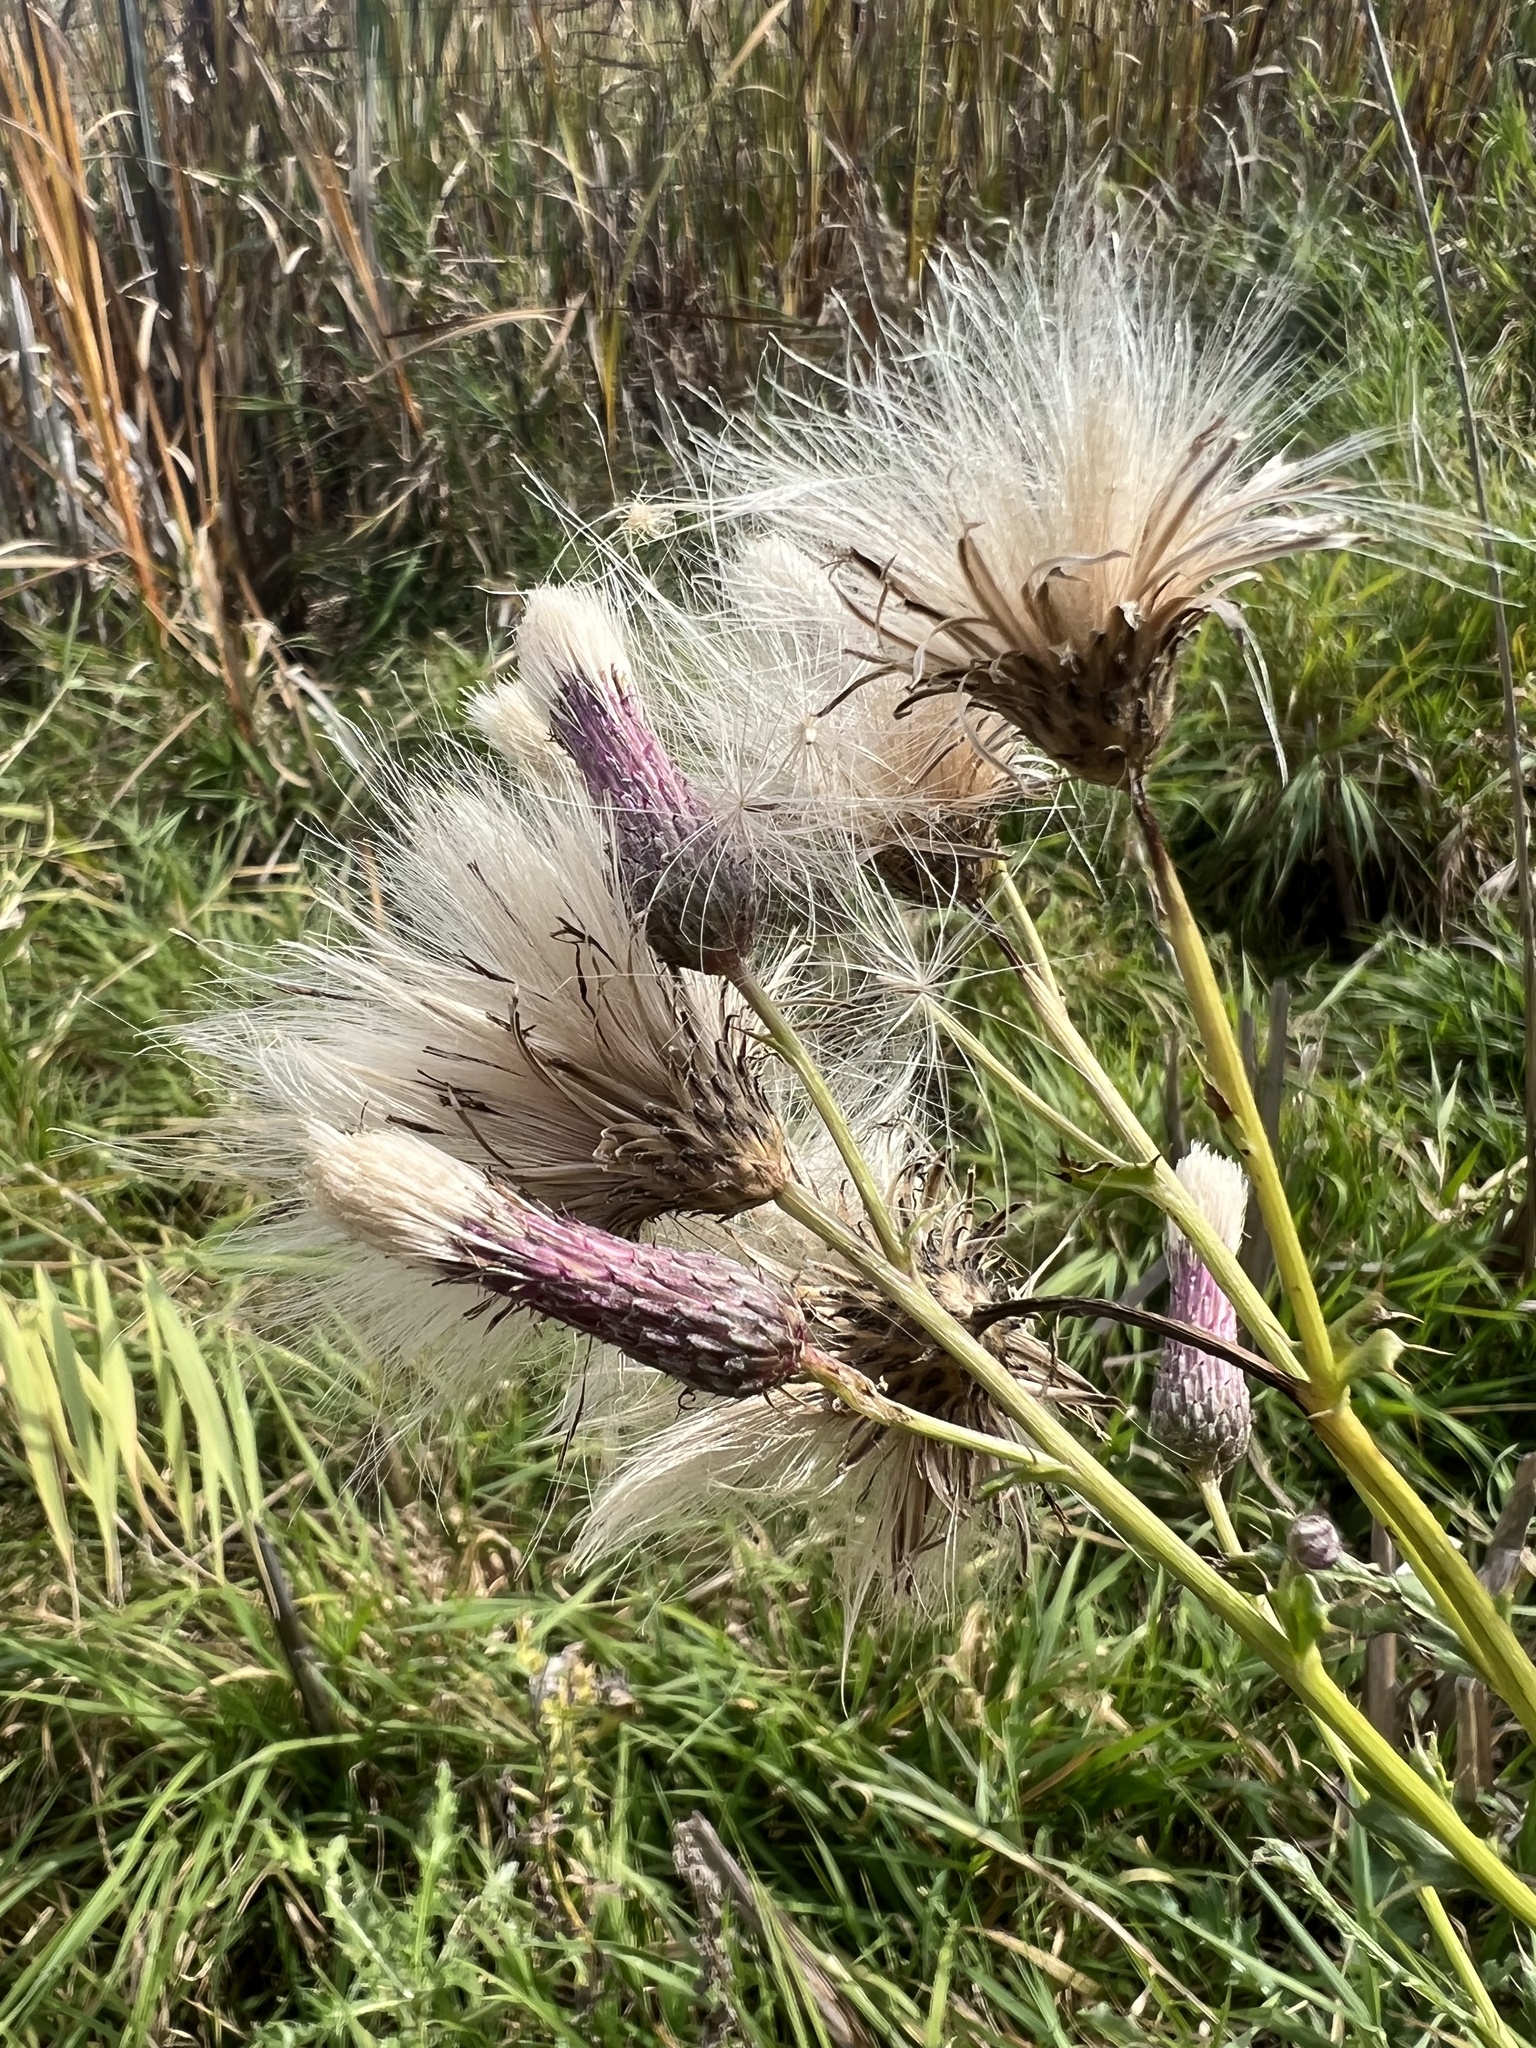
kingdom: Plantae
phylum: Tracheophyta
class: Magnoliopsida
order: Asterales
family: Asteraceae
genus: Cirsium
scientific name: Cirsium arvense
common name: Creeping thistle
